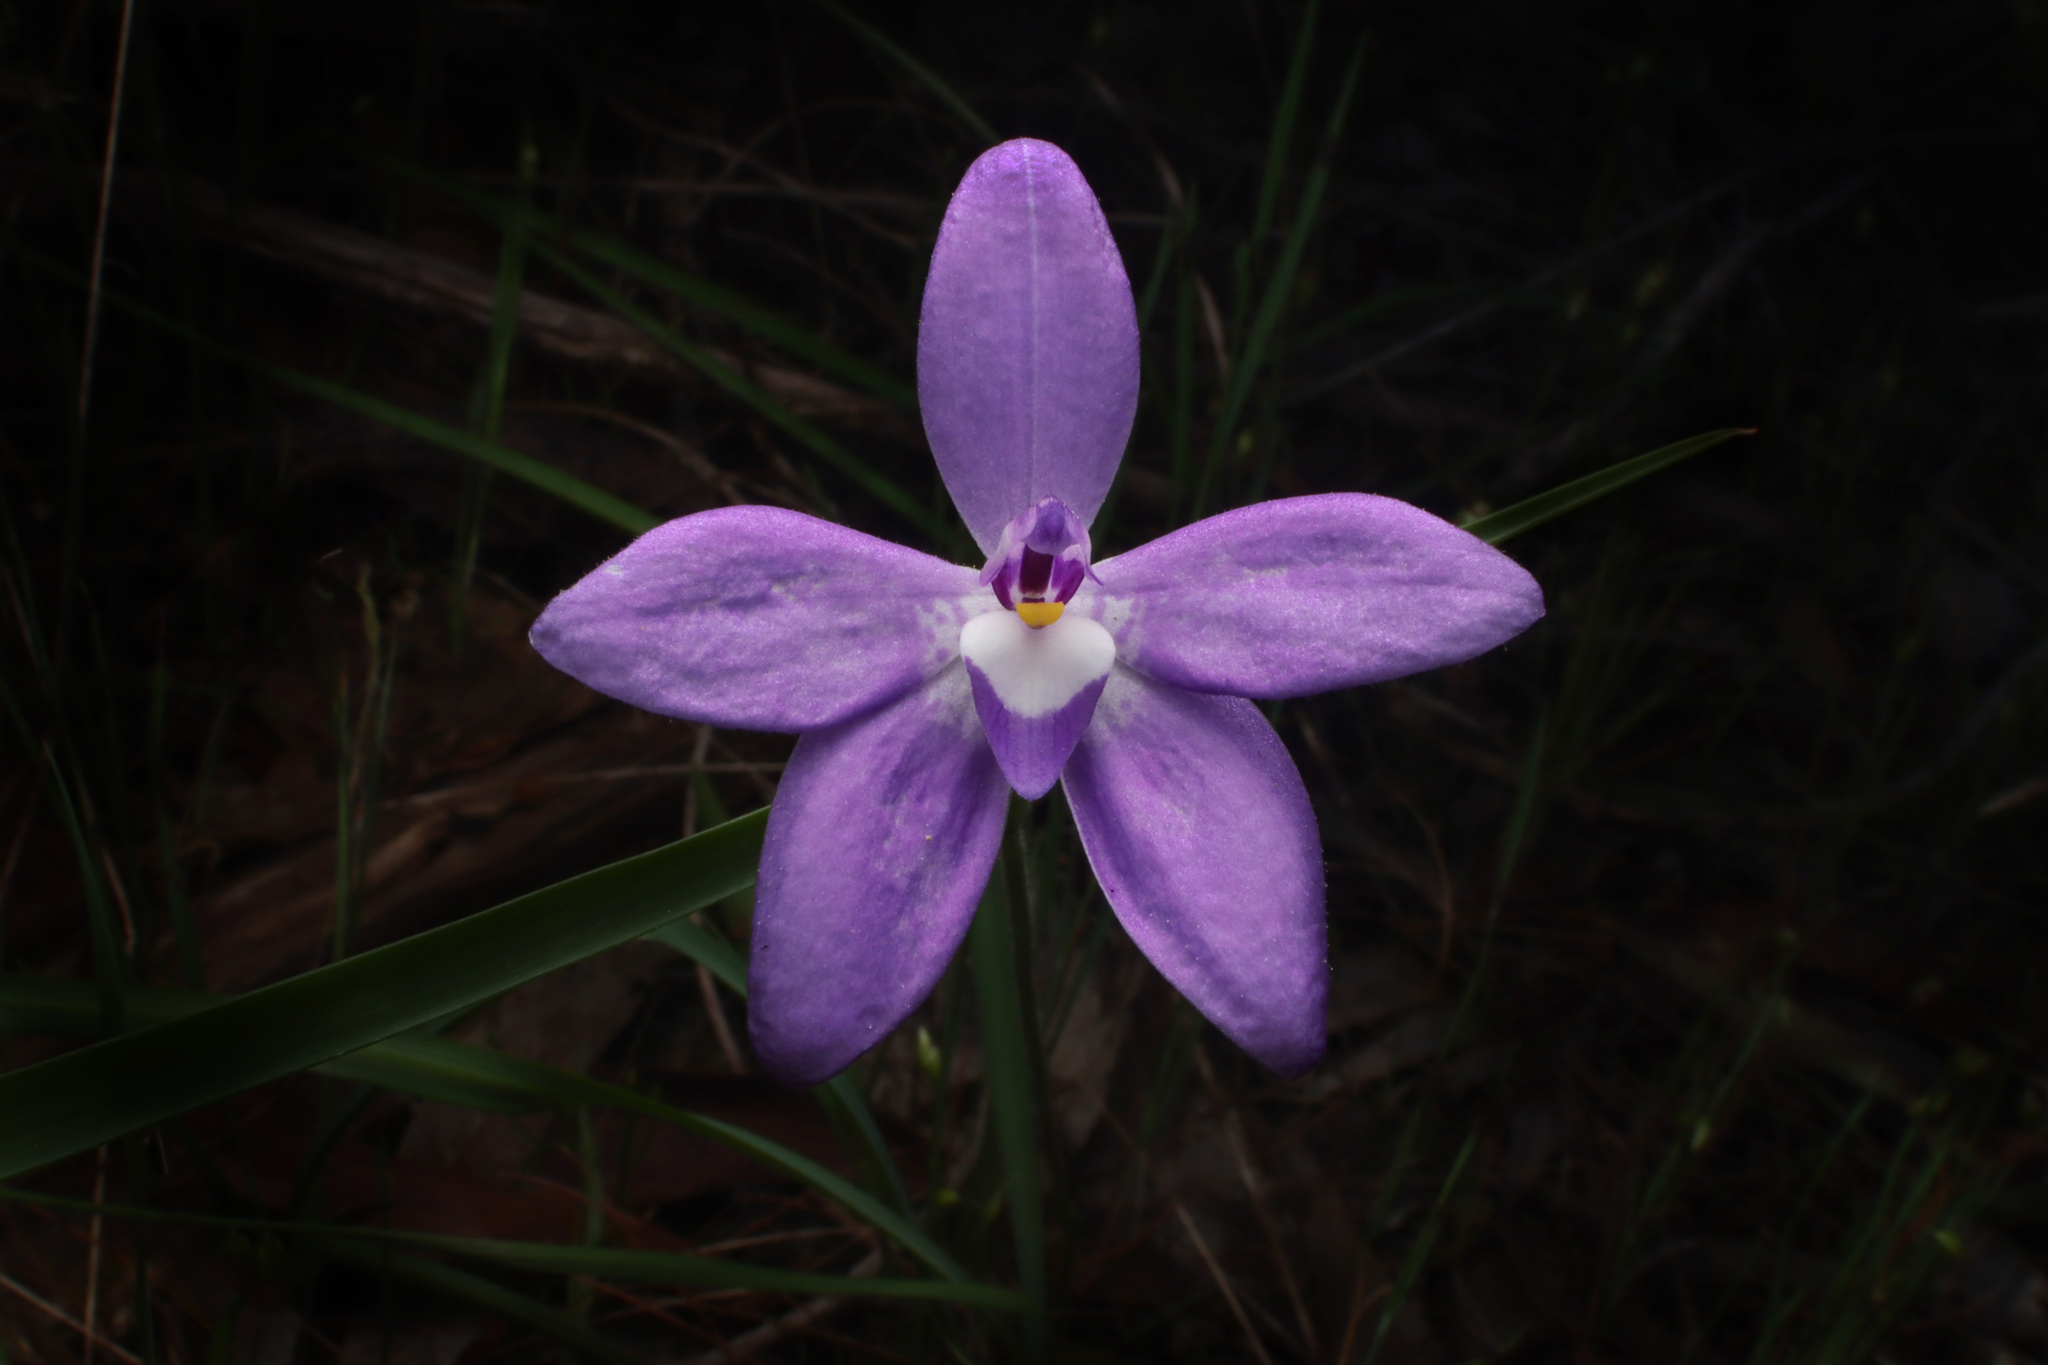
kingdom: Plantae
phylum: Tracheophyta
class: Liliopsida
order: Asparagales
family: Orchidaceae
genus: Caladenia
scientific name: Caladenia major
